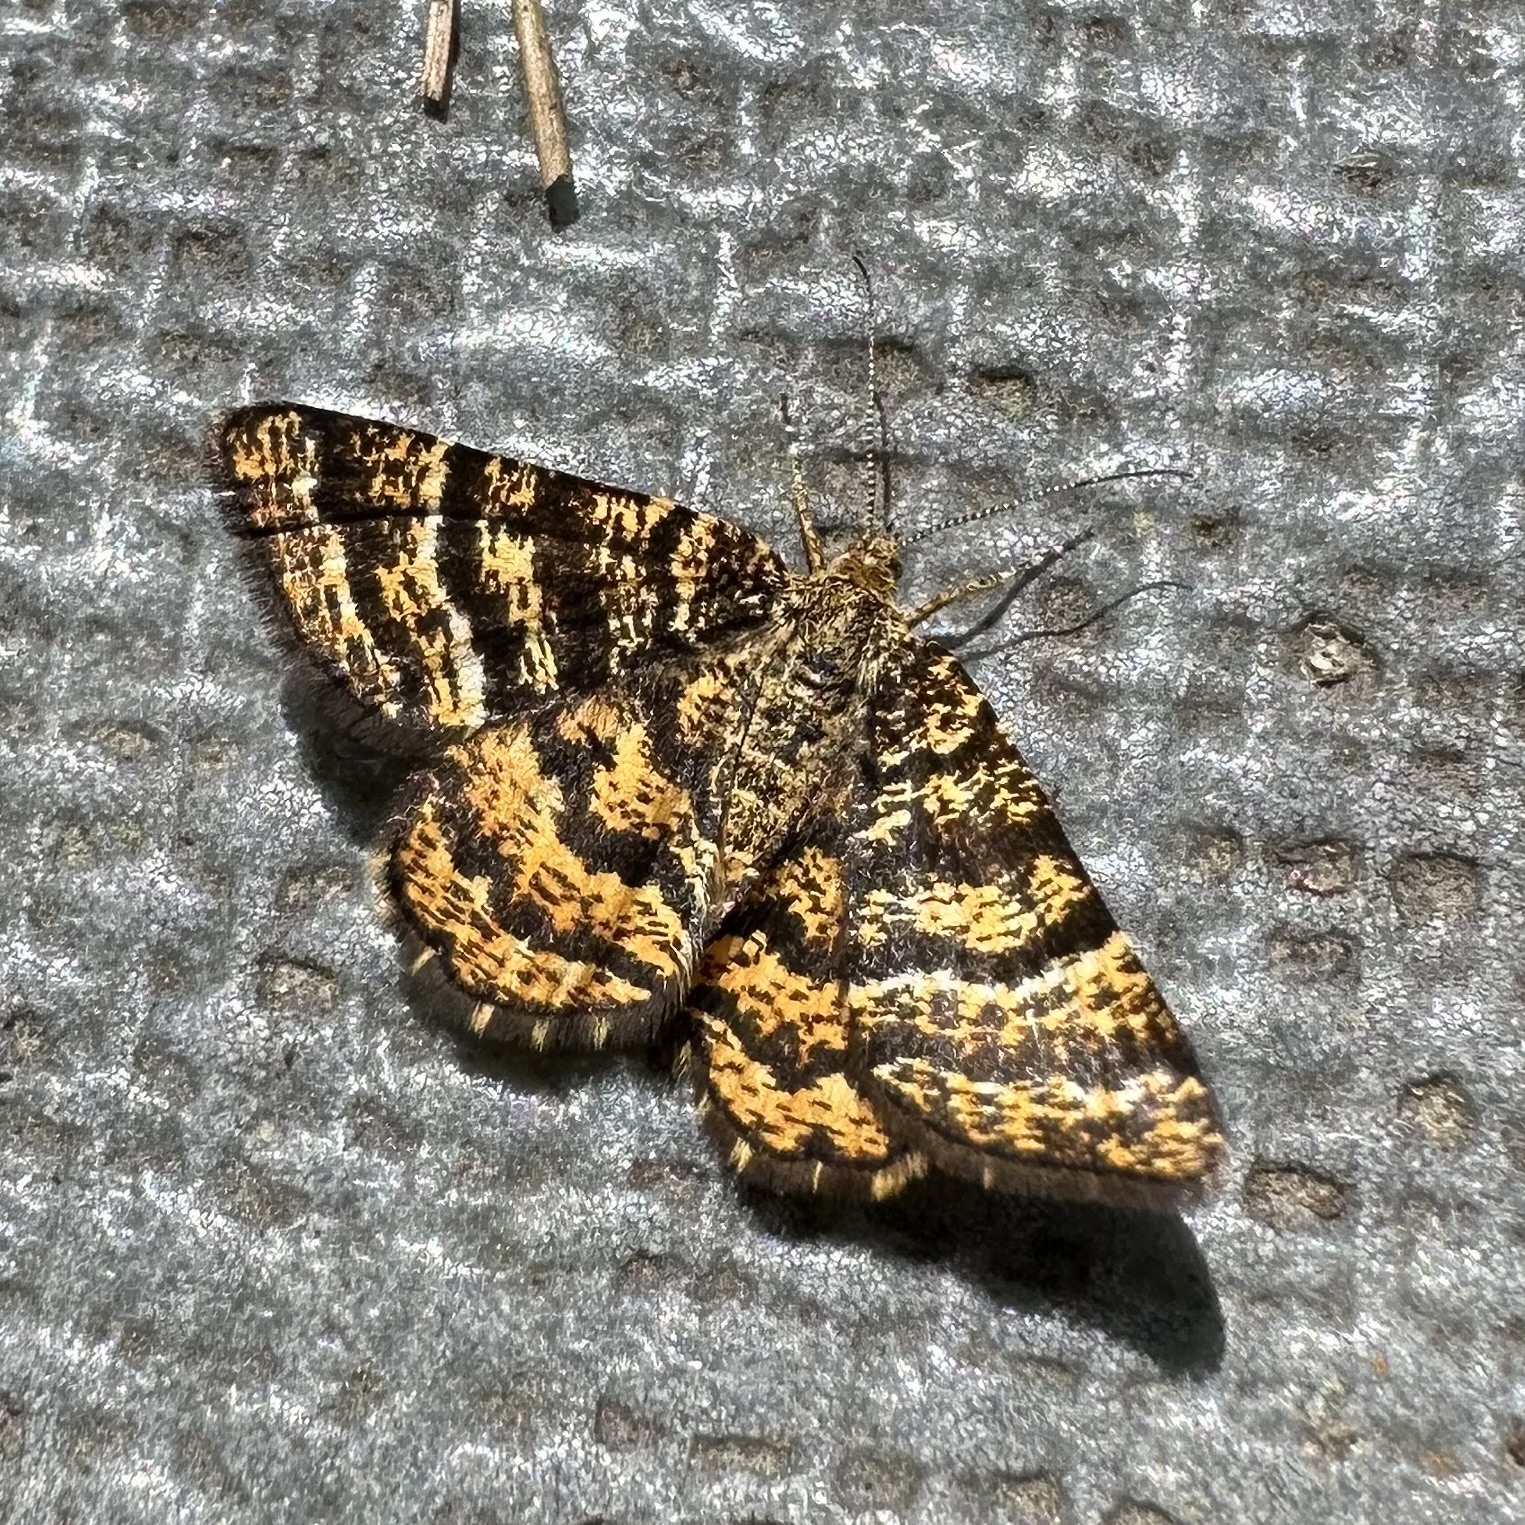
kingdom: Animalia
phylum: Arthropoda
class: Insecta
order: Lepidoptera
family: Geometridae
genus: Macaria
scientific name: Macaria truncataria
